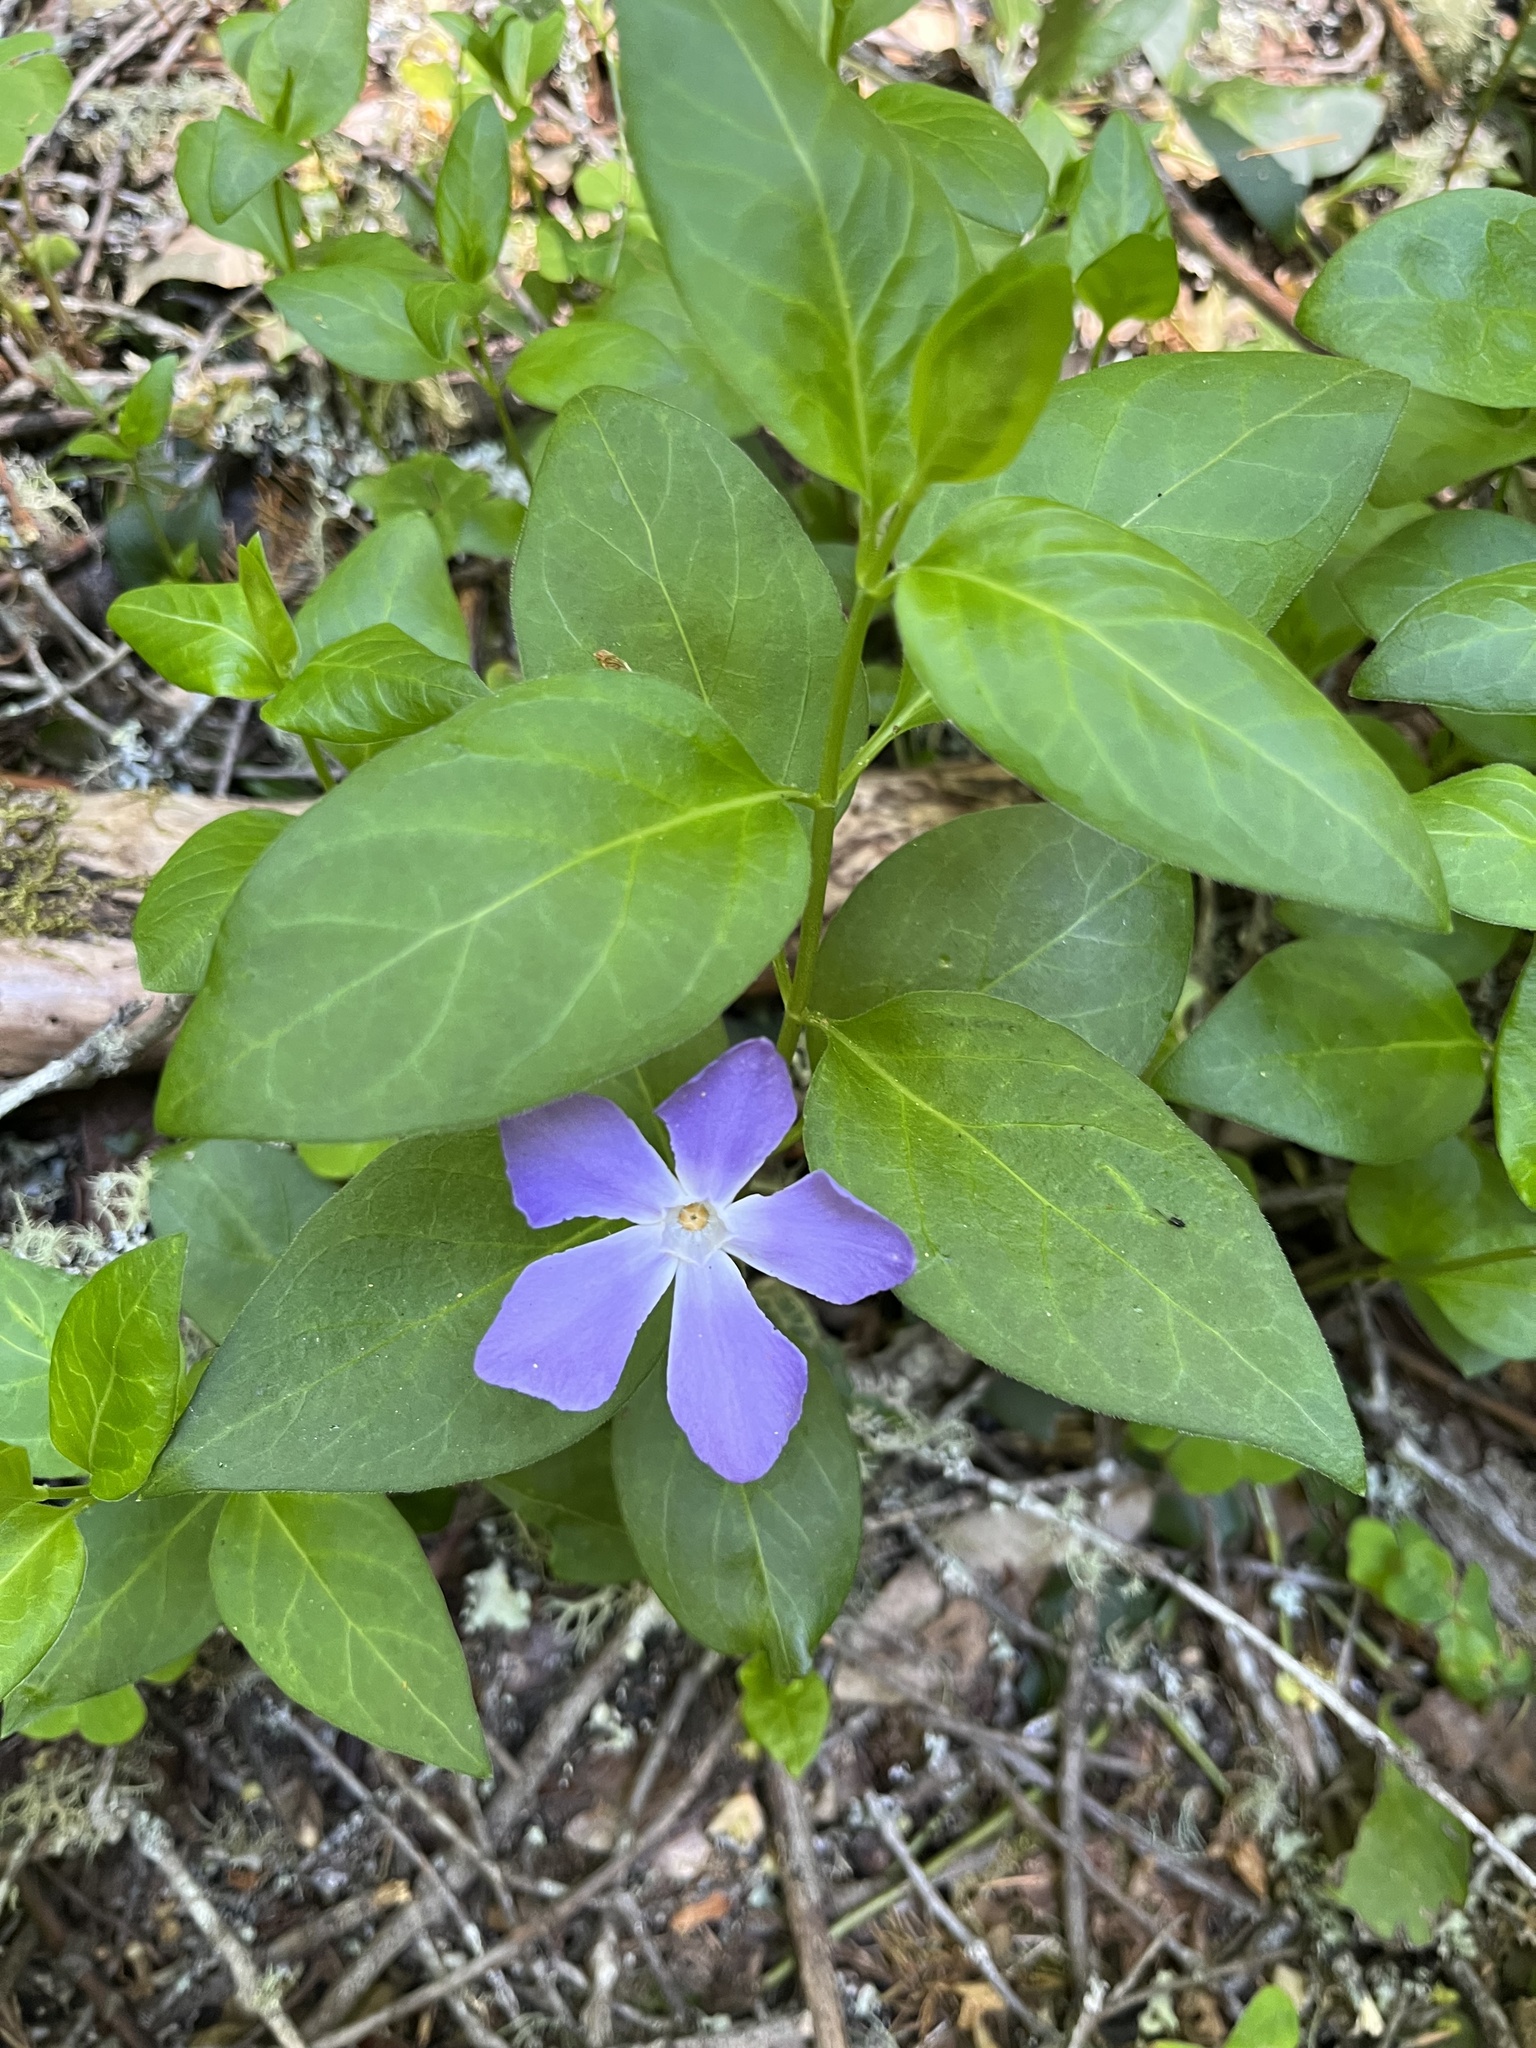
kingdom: Plantae
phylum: Tracheophyta
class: Magnoliopsida
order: Gentianales
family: Apocynaceae
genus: Vinca
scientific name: Vinca major
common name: Greater periwinkle
